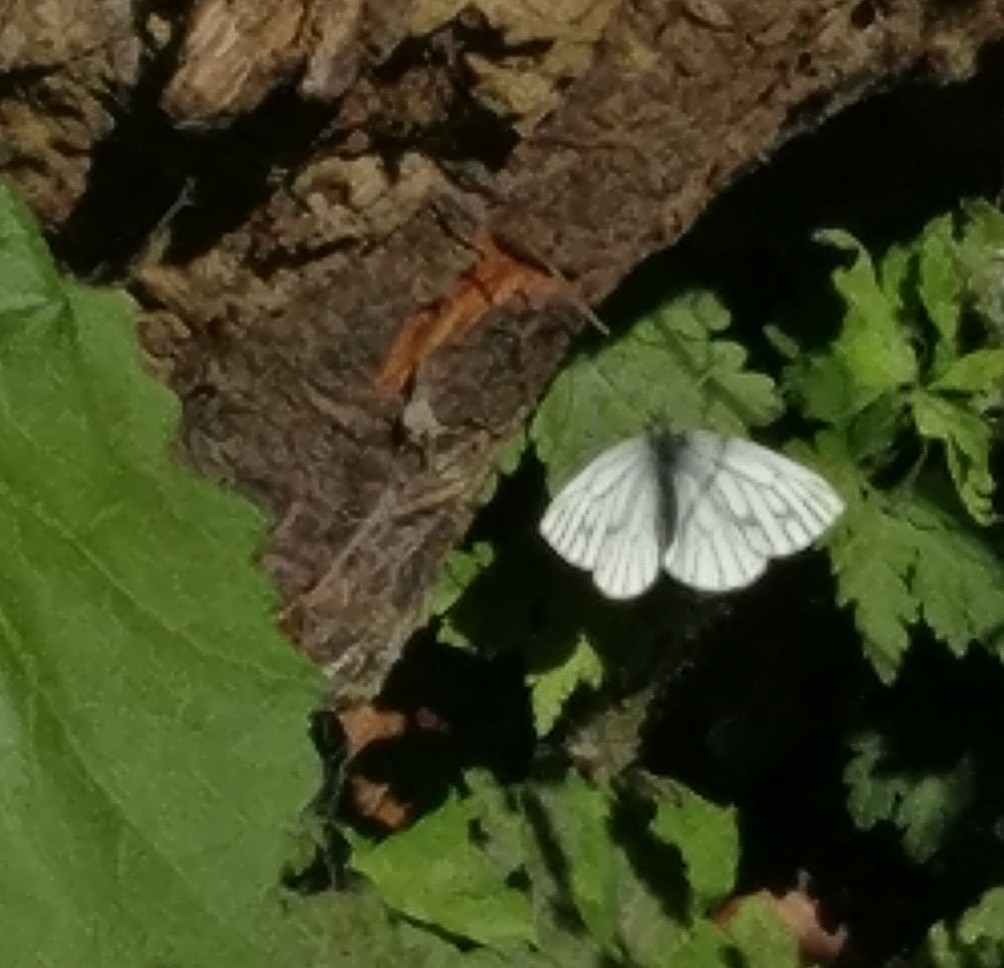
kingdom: Animalia
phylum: Arthropoda
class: Insecta
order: Lepidoptera
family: Pieridae
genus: Pieris
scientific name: Pieris napi
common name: Green-veined white
